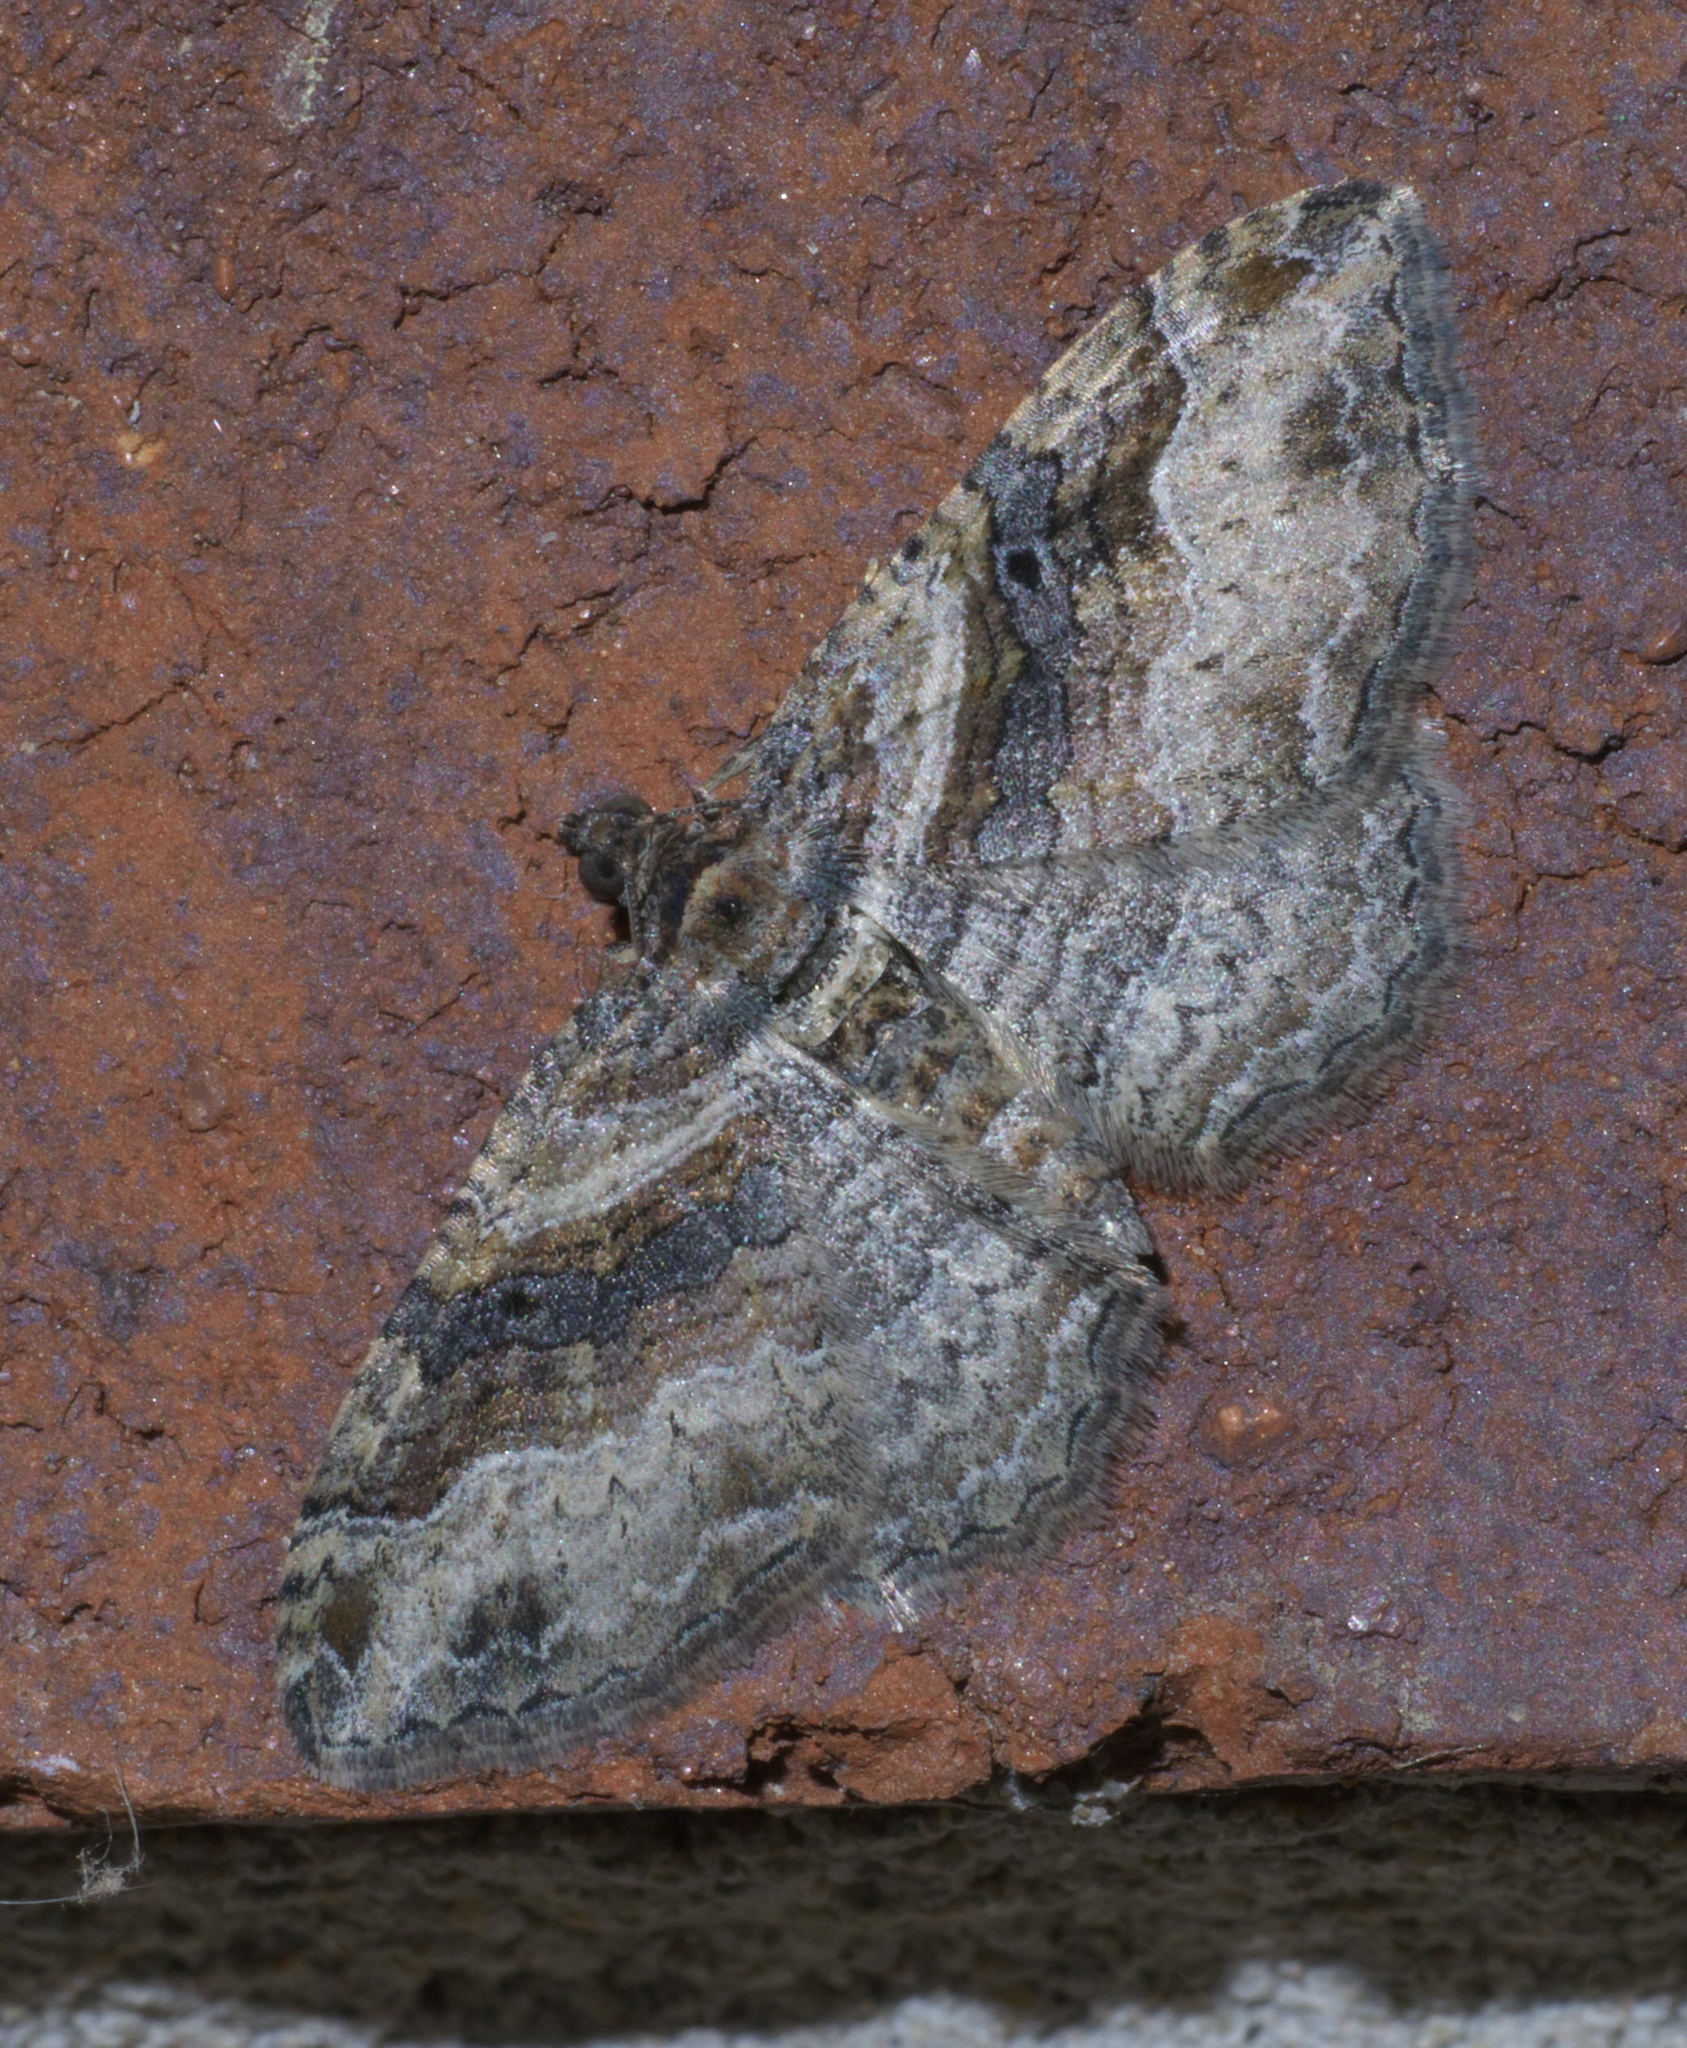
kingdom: Animalia
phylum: Arthropoda
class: Insecta
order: Lepidoptera
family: Geometridae
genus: Costaconvexa
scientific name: Costaconvexa centrostrigaria
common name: Bent-line carpet
